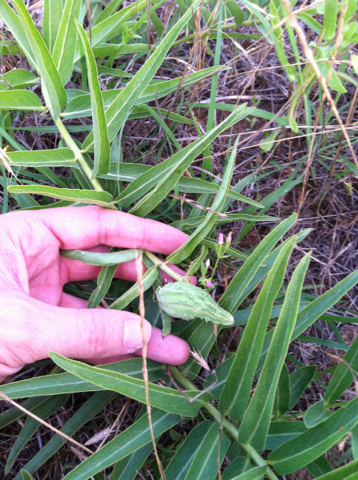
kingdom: Plantae
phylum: Tracheophyta
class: Magnoliopsida
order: Gentianales
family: Apocynaceae
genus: Asclepias
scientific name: Asclepias asperula
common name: Antelope horns
